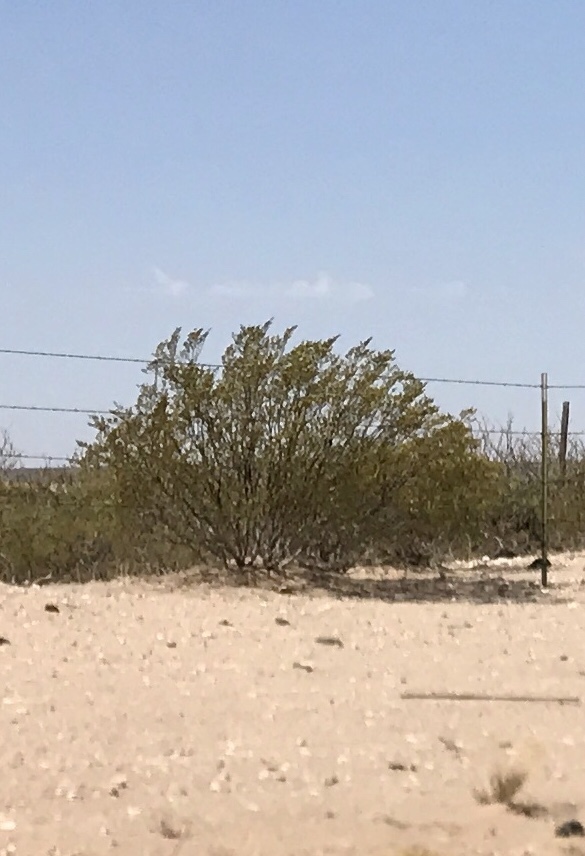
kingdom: Plantae
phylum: Tracheophyta
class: Magnoliopsida
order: Zygophyllales
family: Zygophyllaceae
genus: Larrea
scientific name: Larrea tridentata
